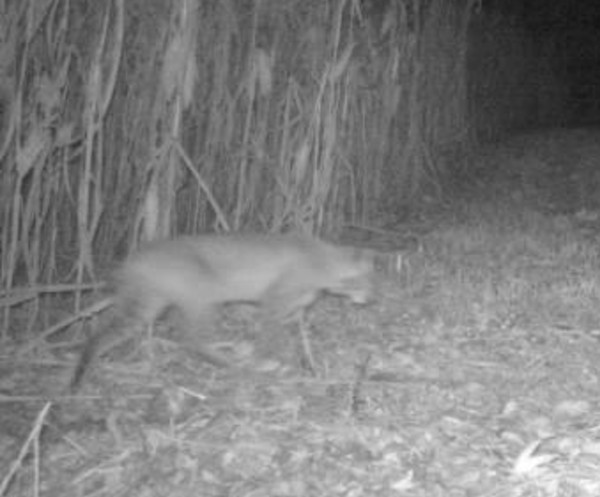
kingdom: Animalia
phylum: Chordata
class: Mammalia
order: Carnivora
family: Felidae
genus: Lynx
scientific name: Lynx rufus
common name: Bobcat
